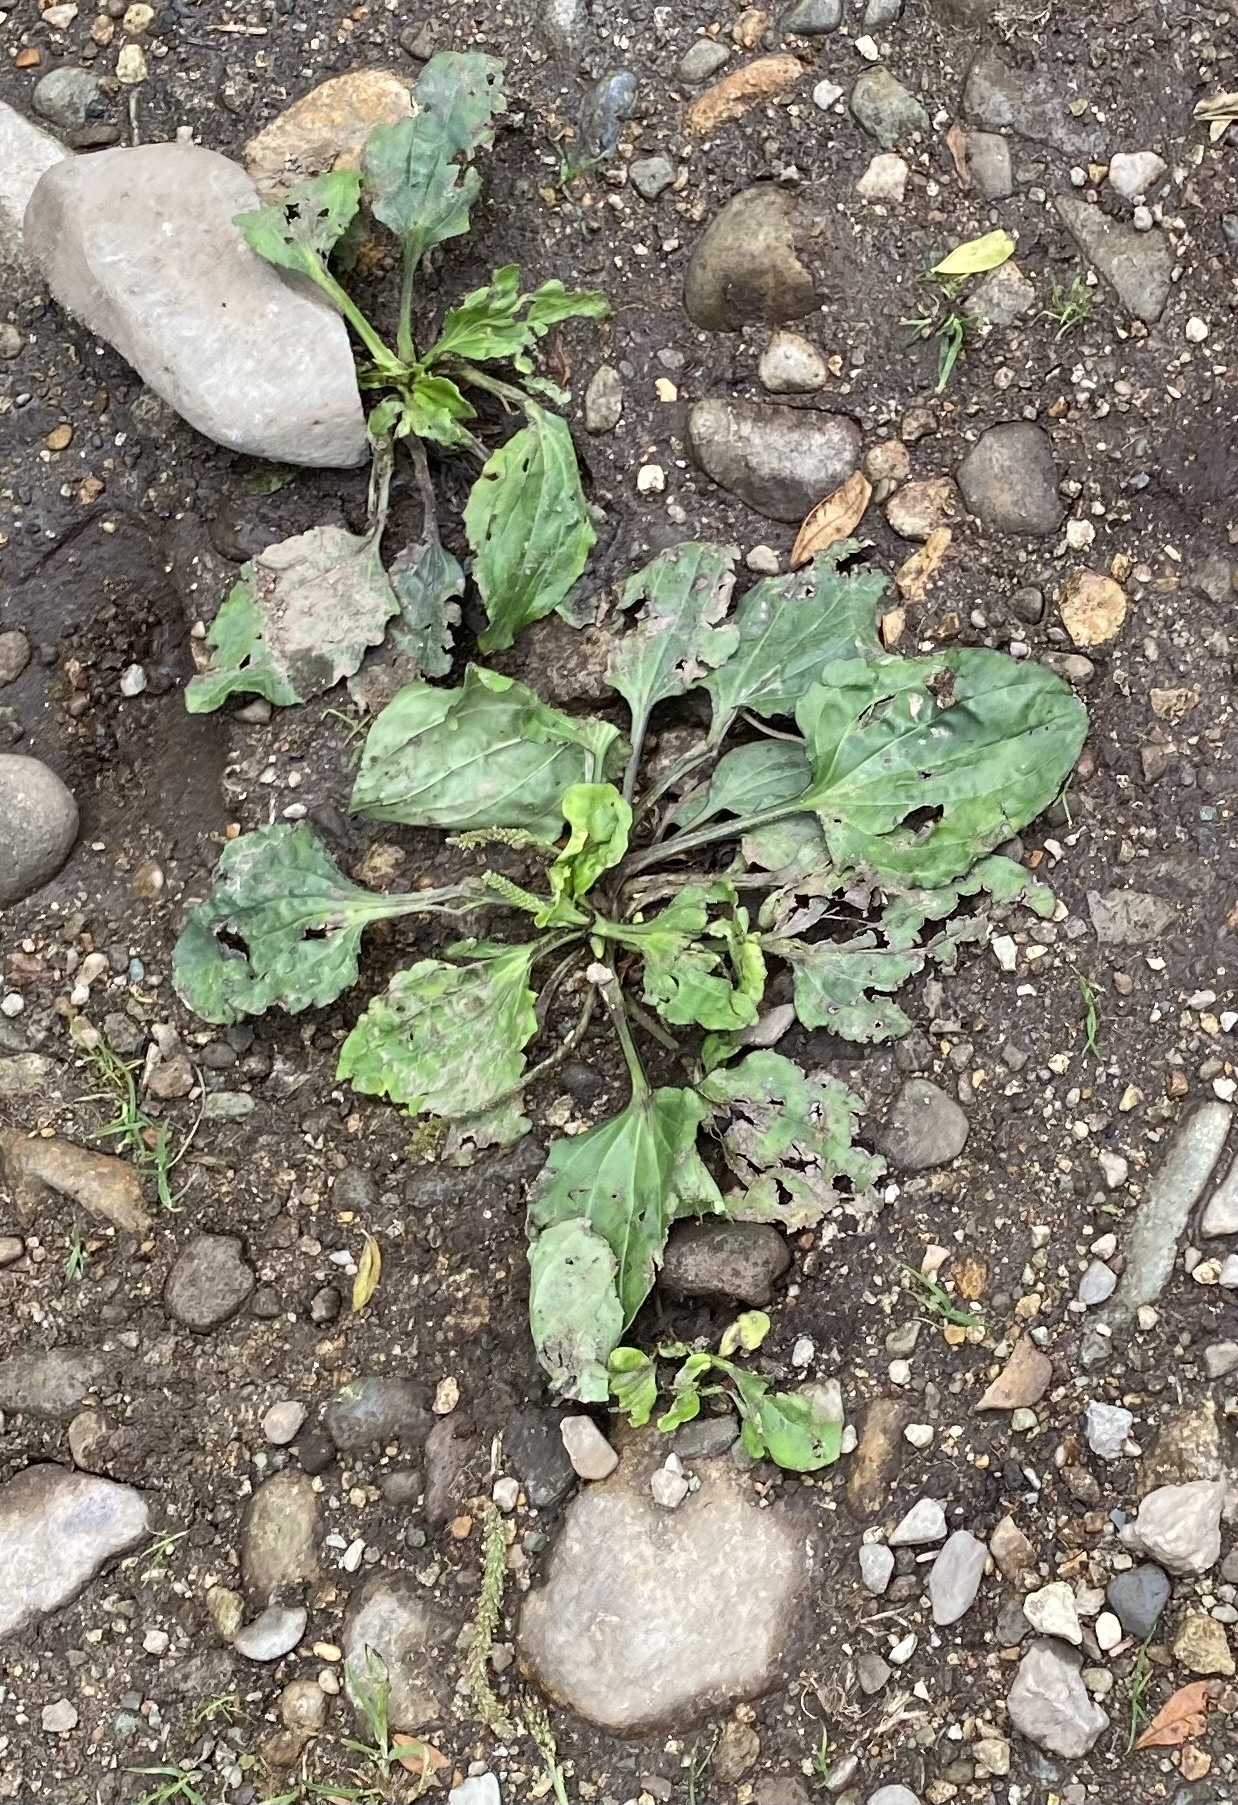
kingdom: Plantae
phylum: Tracheophyta
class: Magnoliopsida
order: Lamiales
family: Plantaginaceae
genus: Plantago
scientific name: Plantago major
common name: Common plantain
